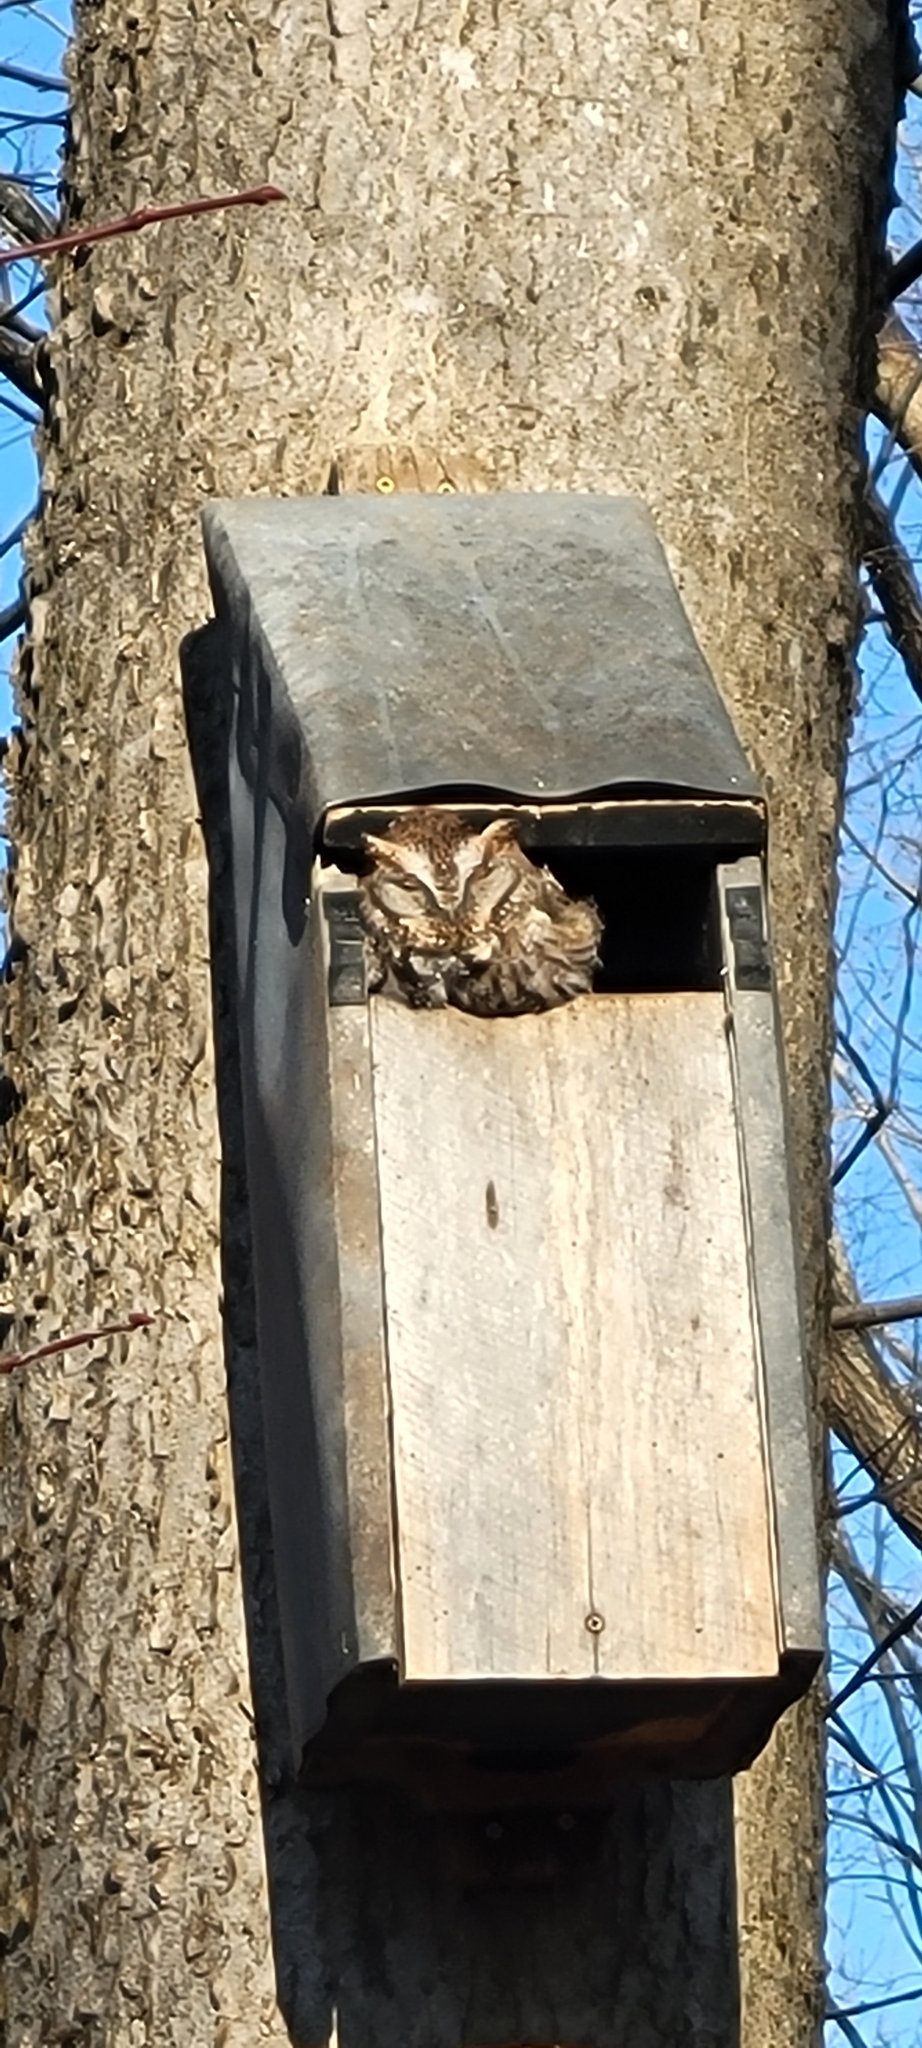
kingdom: Animalia
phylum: Chordata
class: Aves
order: Strigiformes
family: Strigidae
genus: Megascops
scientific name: Megascops asio
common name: Eastern screech-owl
